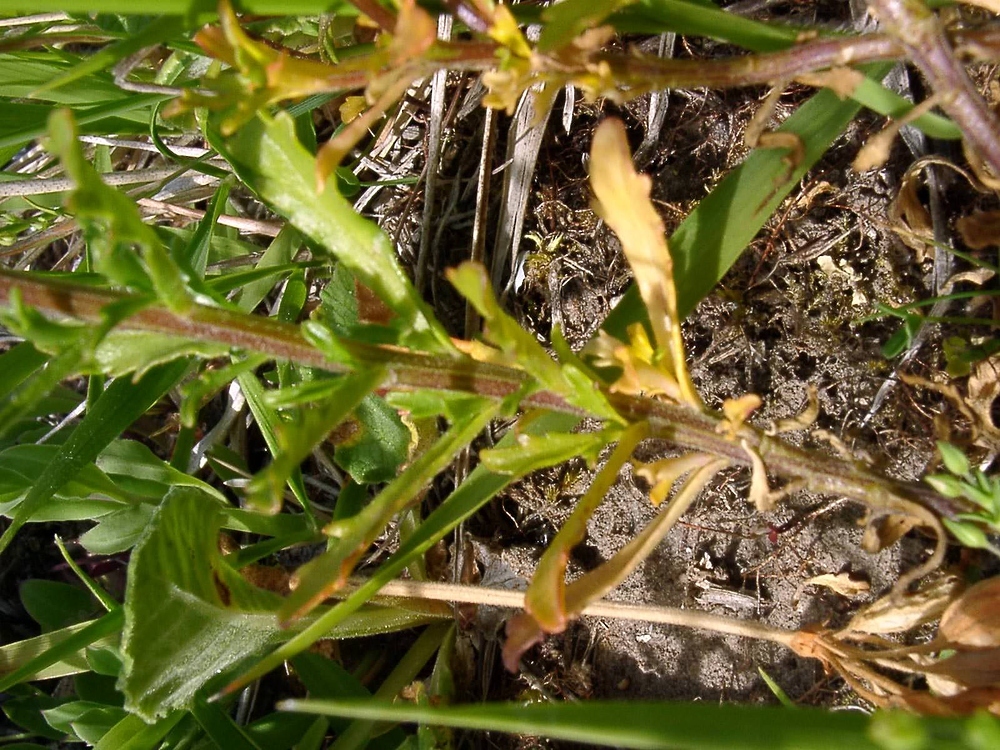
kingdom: Plantae
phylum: Tracheophyta
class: Magnoliopsida
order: Brassicales
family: Brassicaceae
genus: Iberis
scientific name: Iberis amara
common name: Annual candytuft
